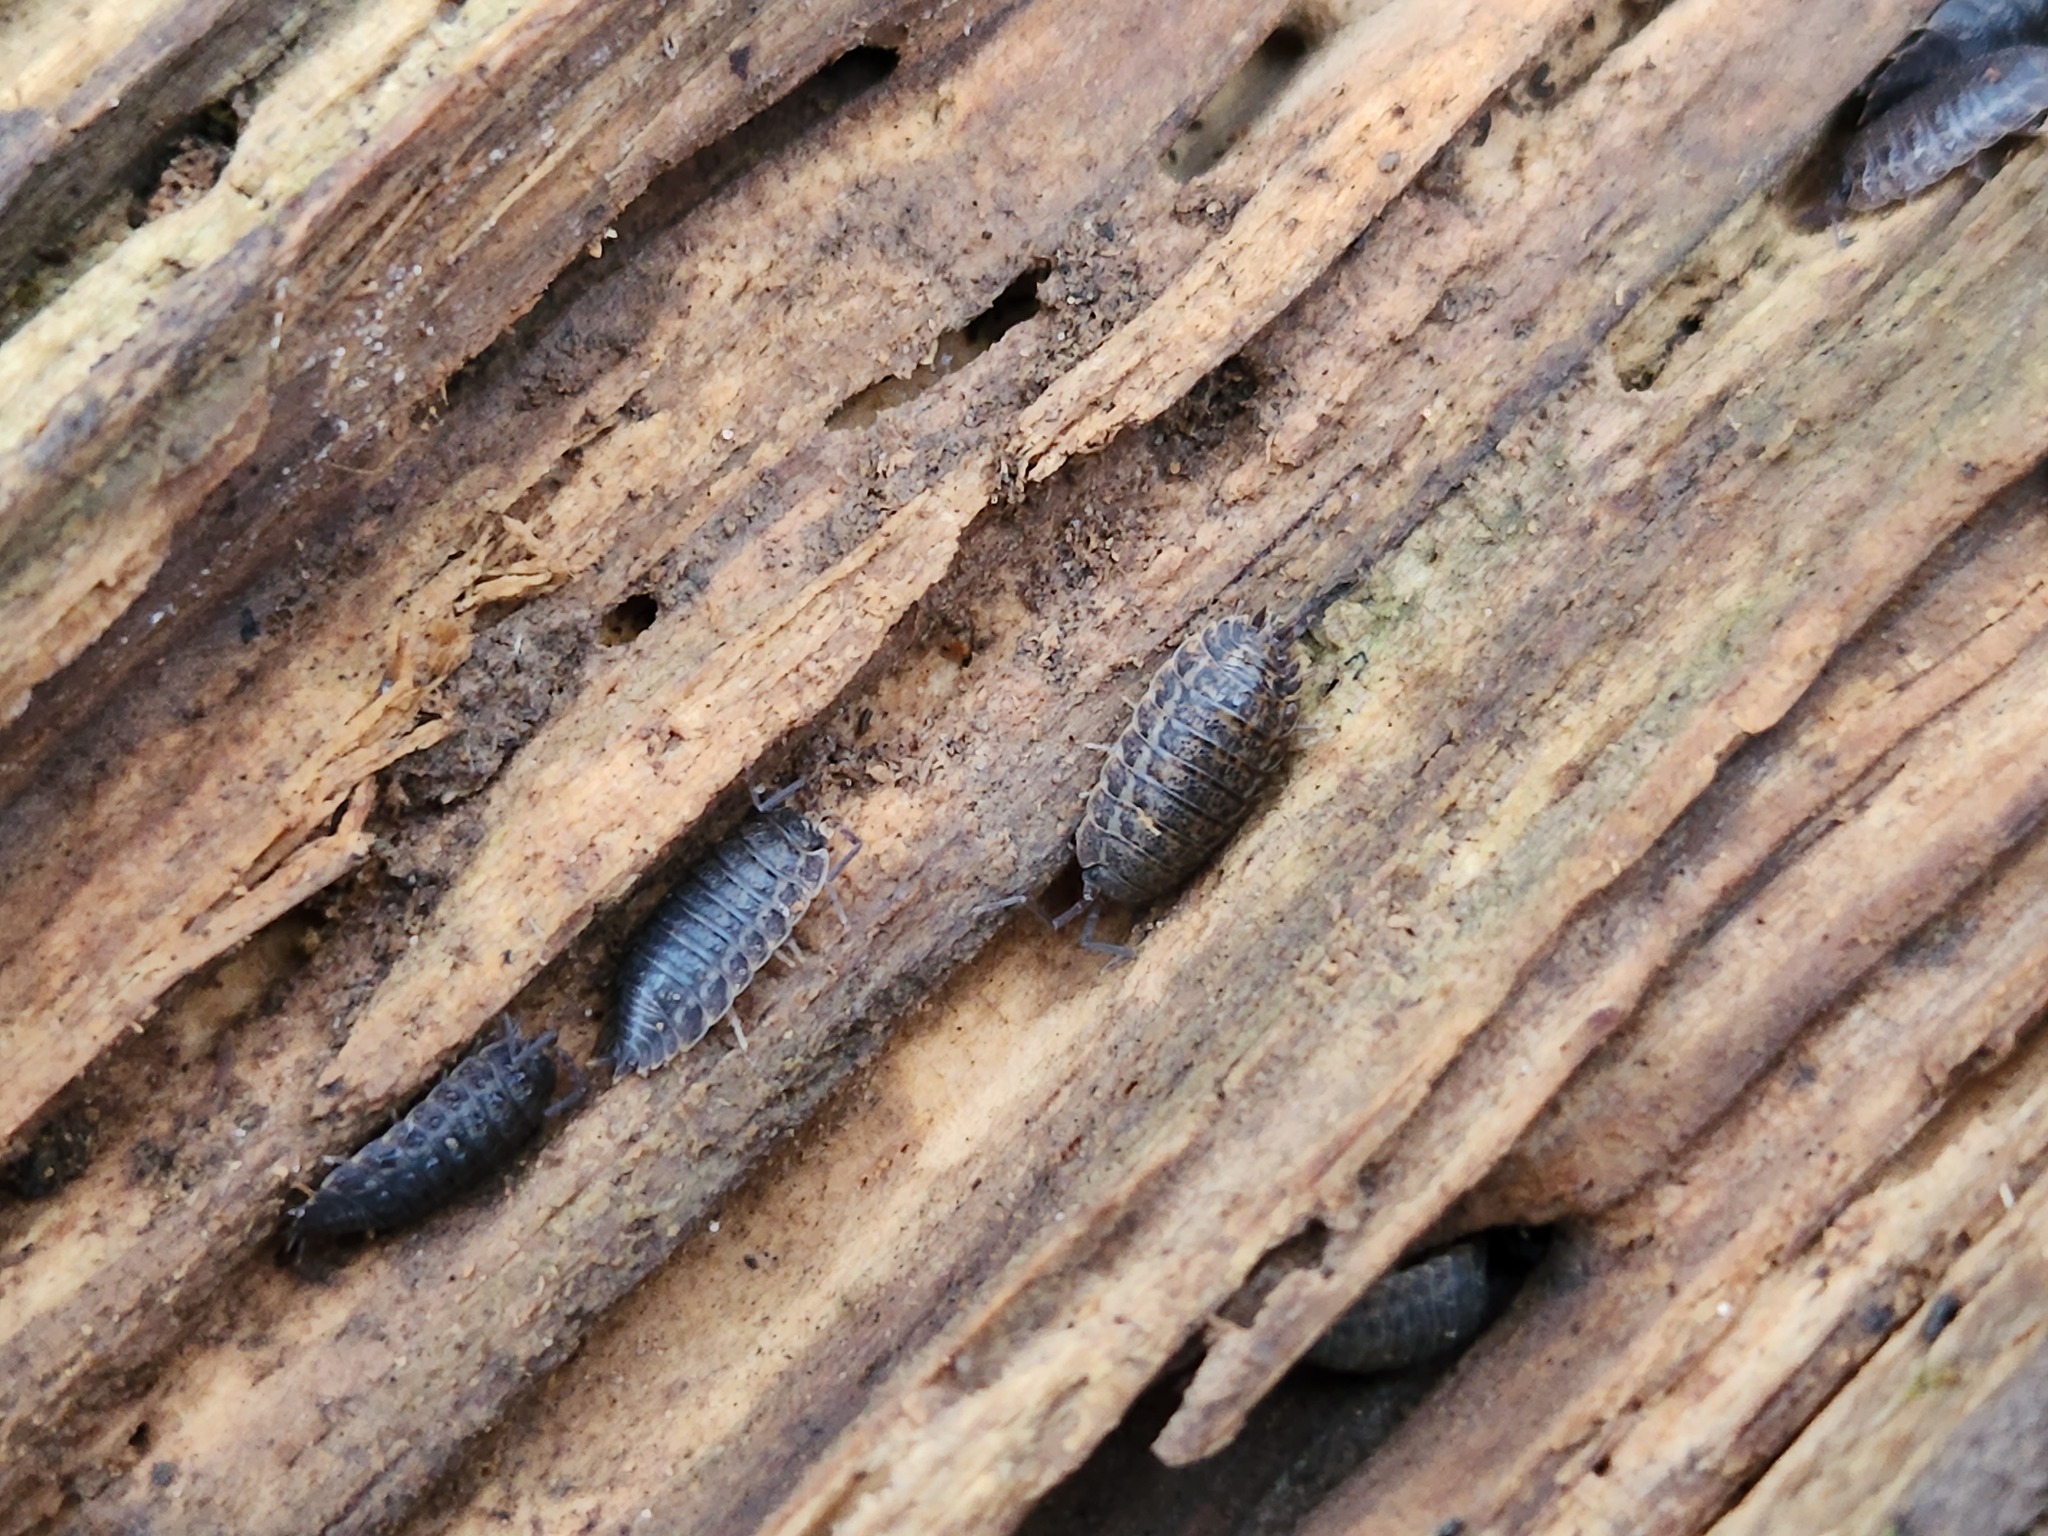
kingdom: Animalia
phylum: Arthropoda
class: Malacostraca
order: Isopoda
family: Trachelipodidae
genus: Trachelipus
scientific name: Trachelipus rathkii
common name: Isopod
